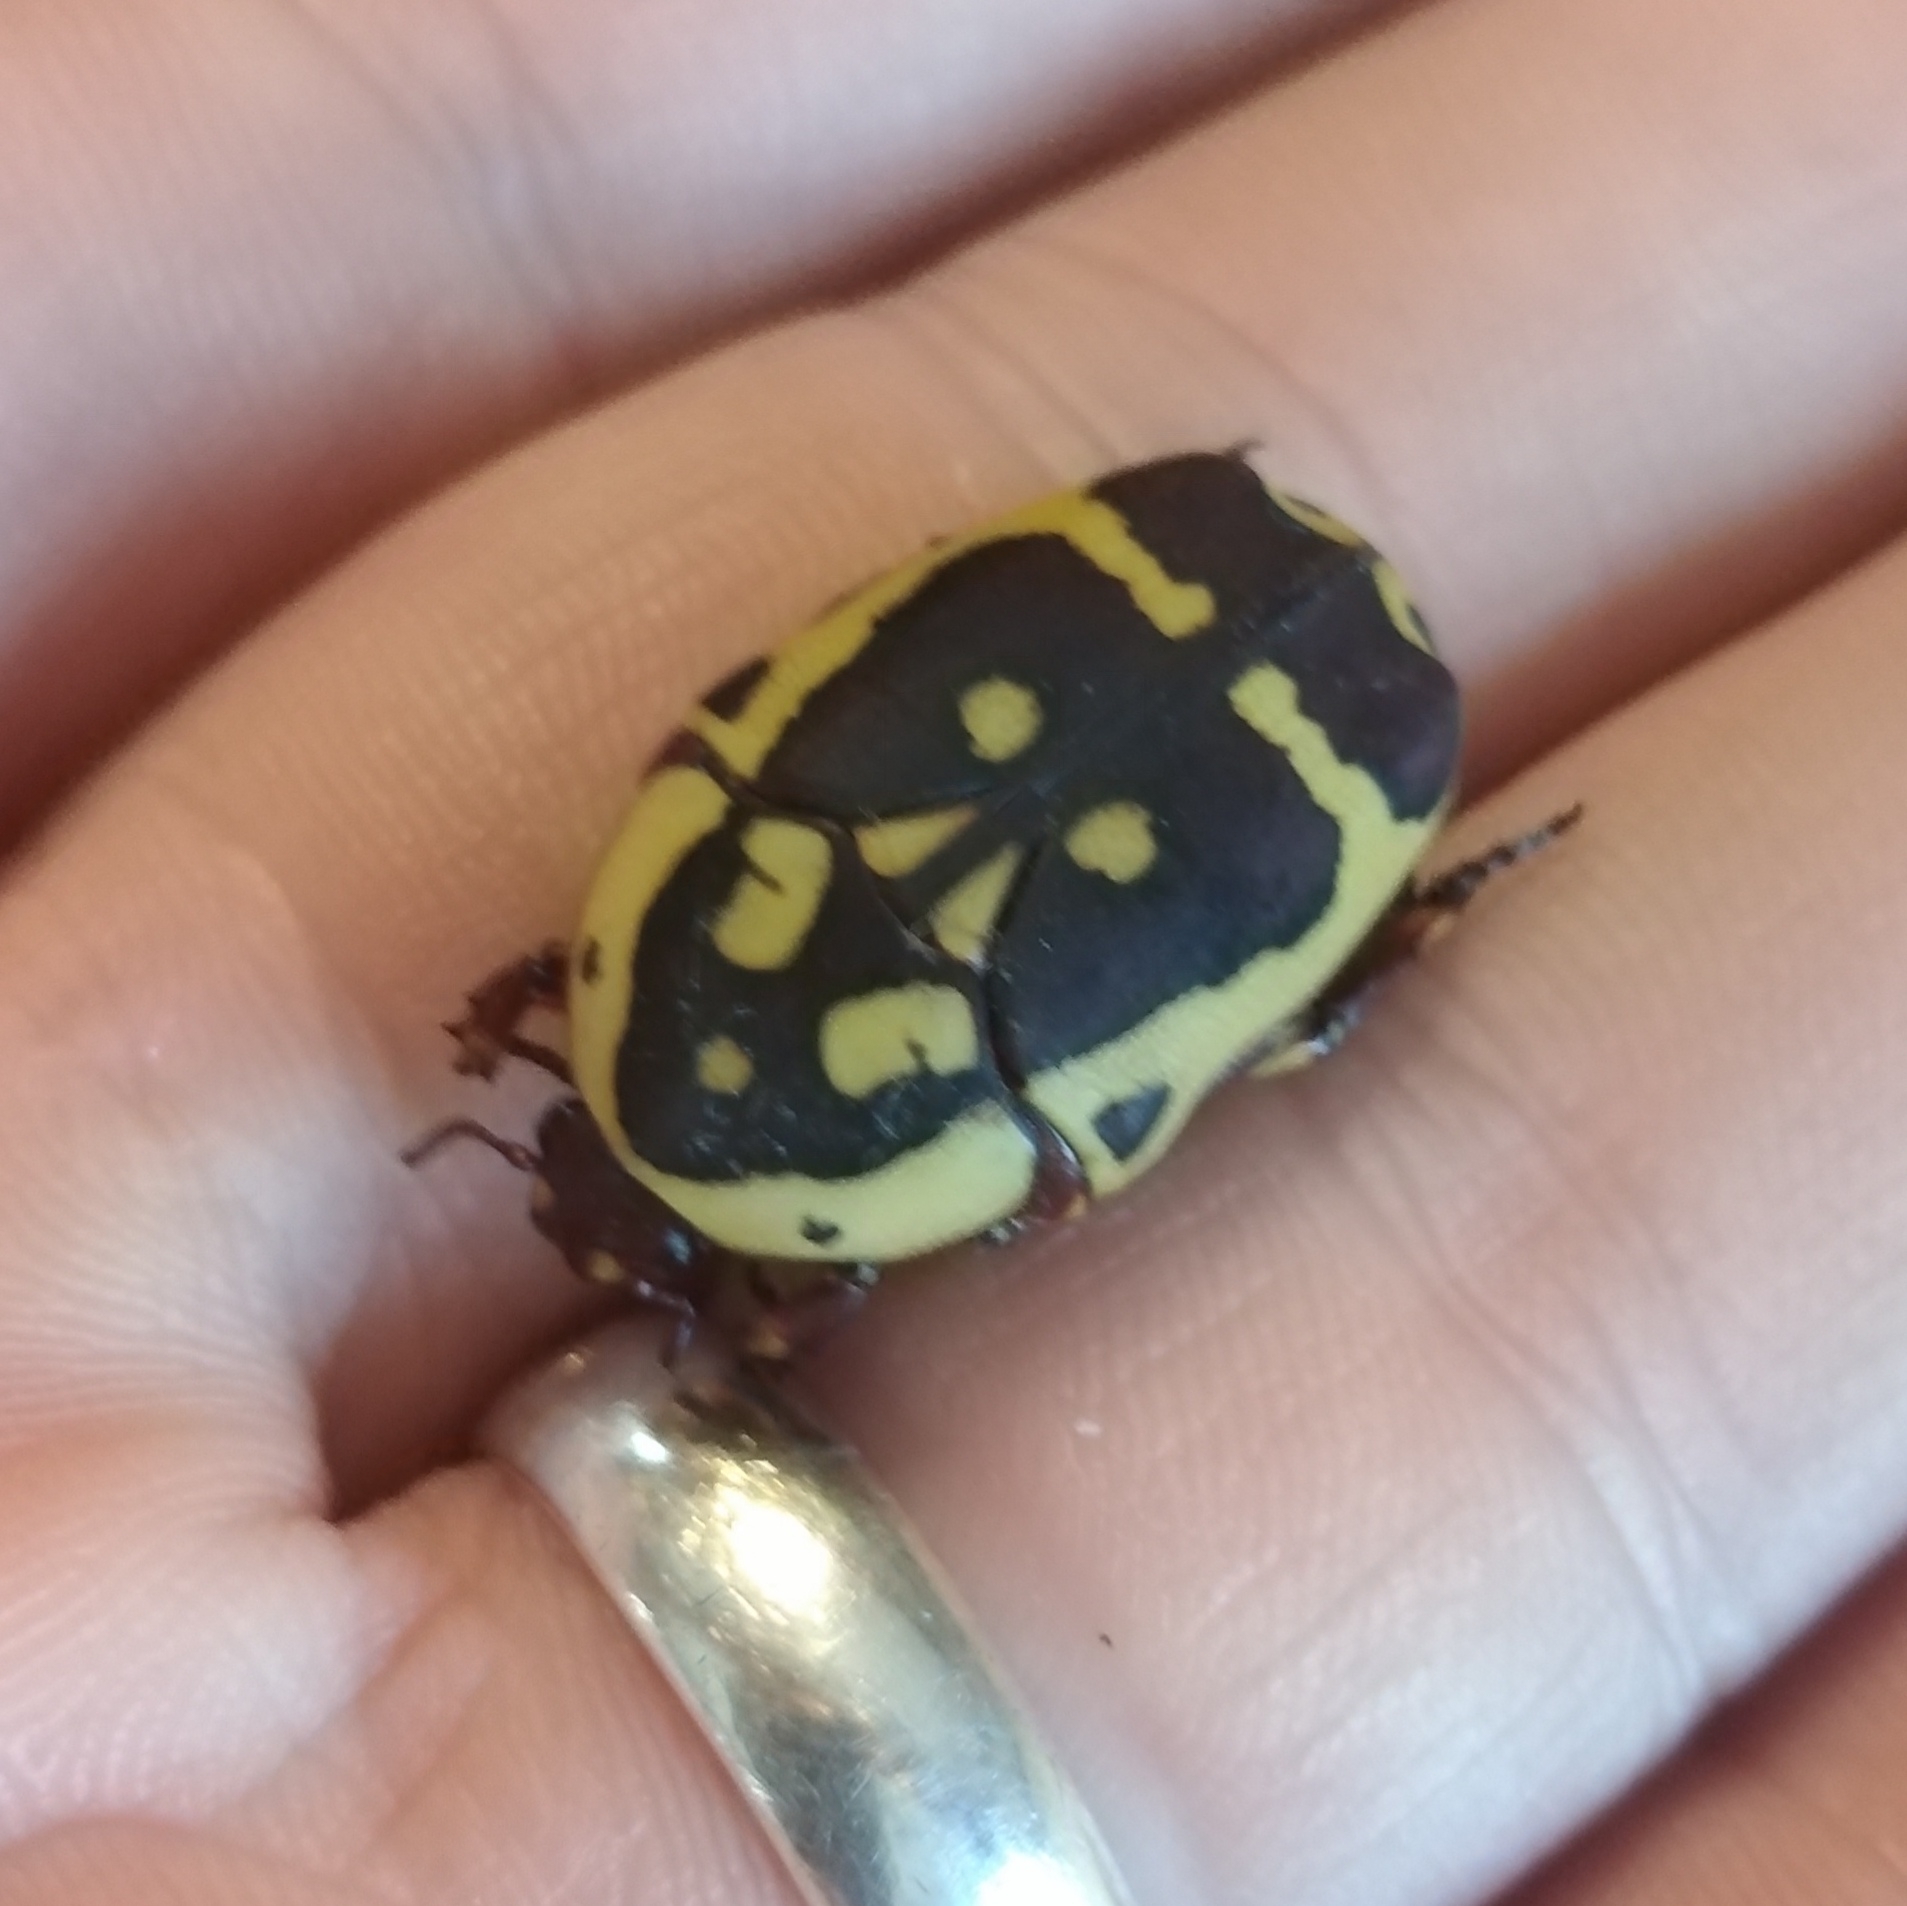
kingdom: Animalia
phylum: Arthropoda
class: Insecta
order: Coleoptera
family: Scarabaeidae
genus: Pachnoda
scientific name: Pachnoda sinuata
